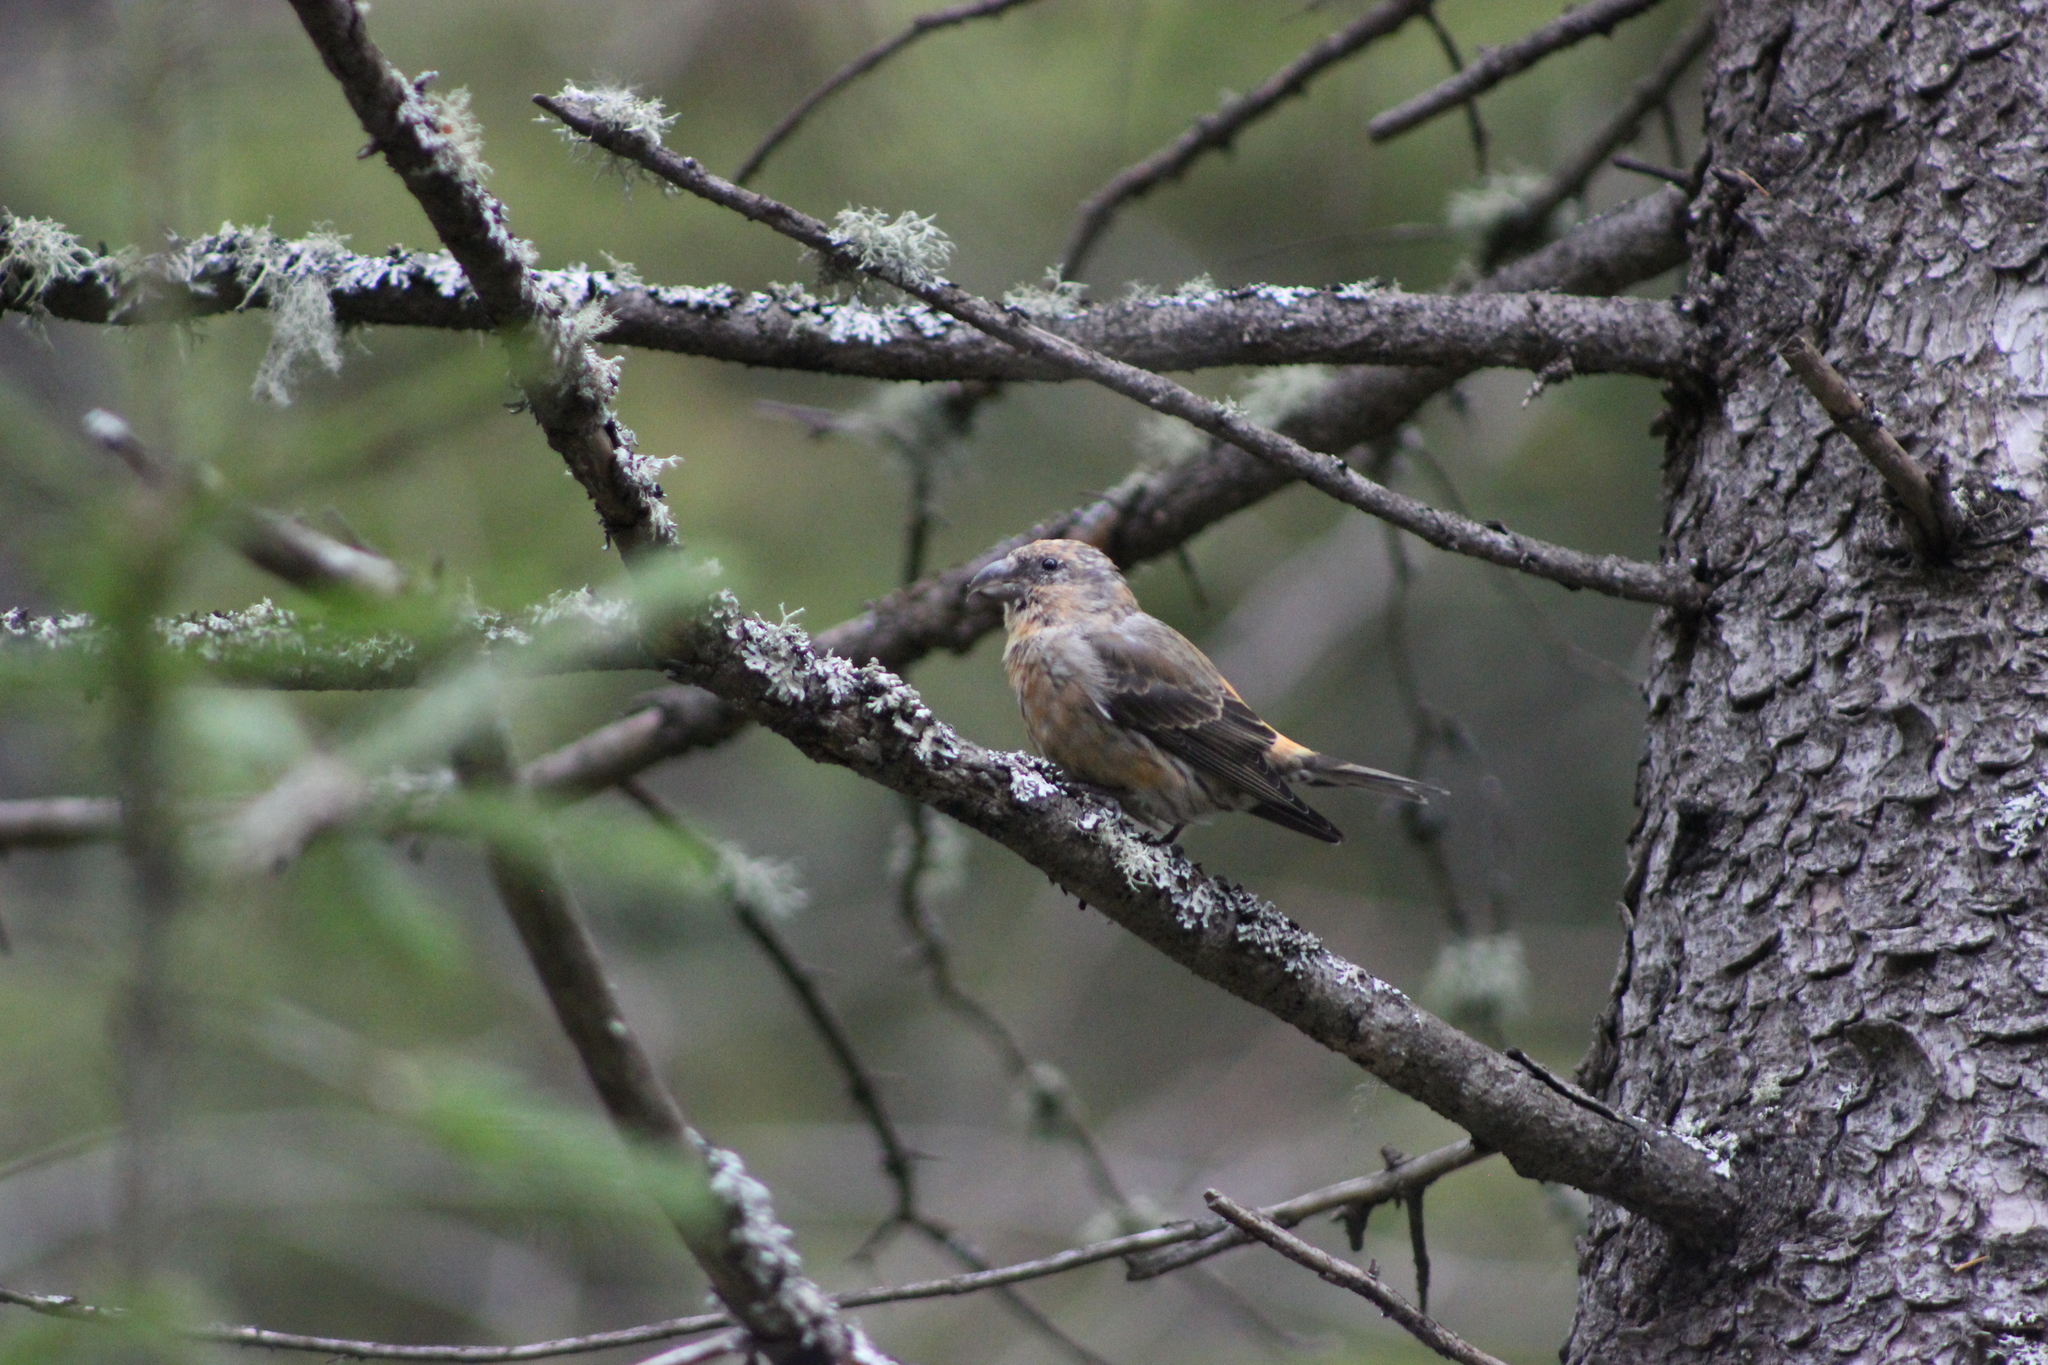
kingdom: Animalia
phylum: Chordata
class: Aves
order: Passeriformes
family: Fringillidae
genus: Loxia
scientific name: Loxia curvirostra
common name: Red crossbill
